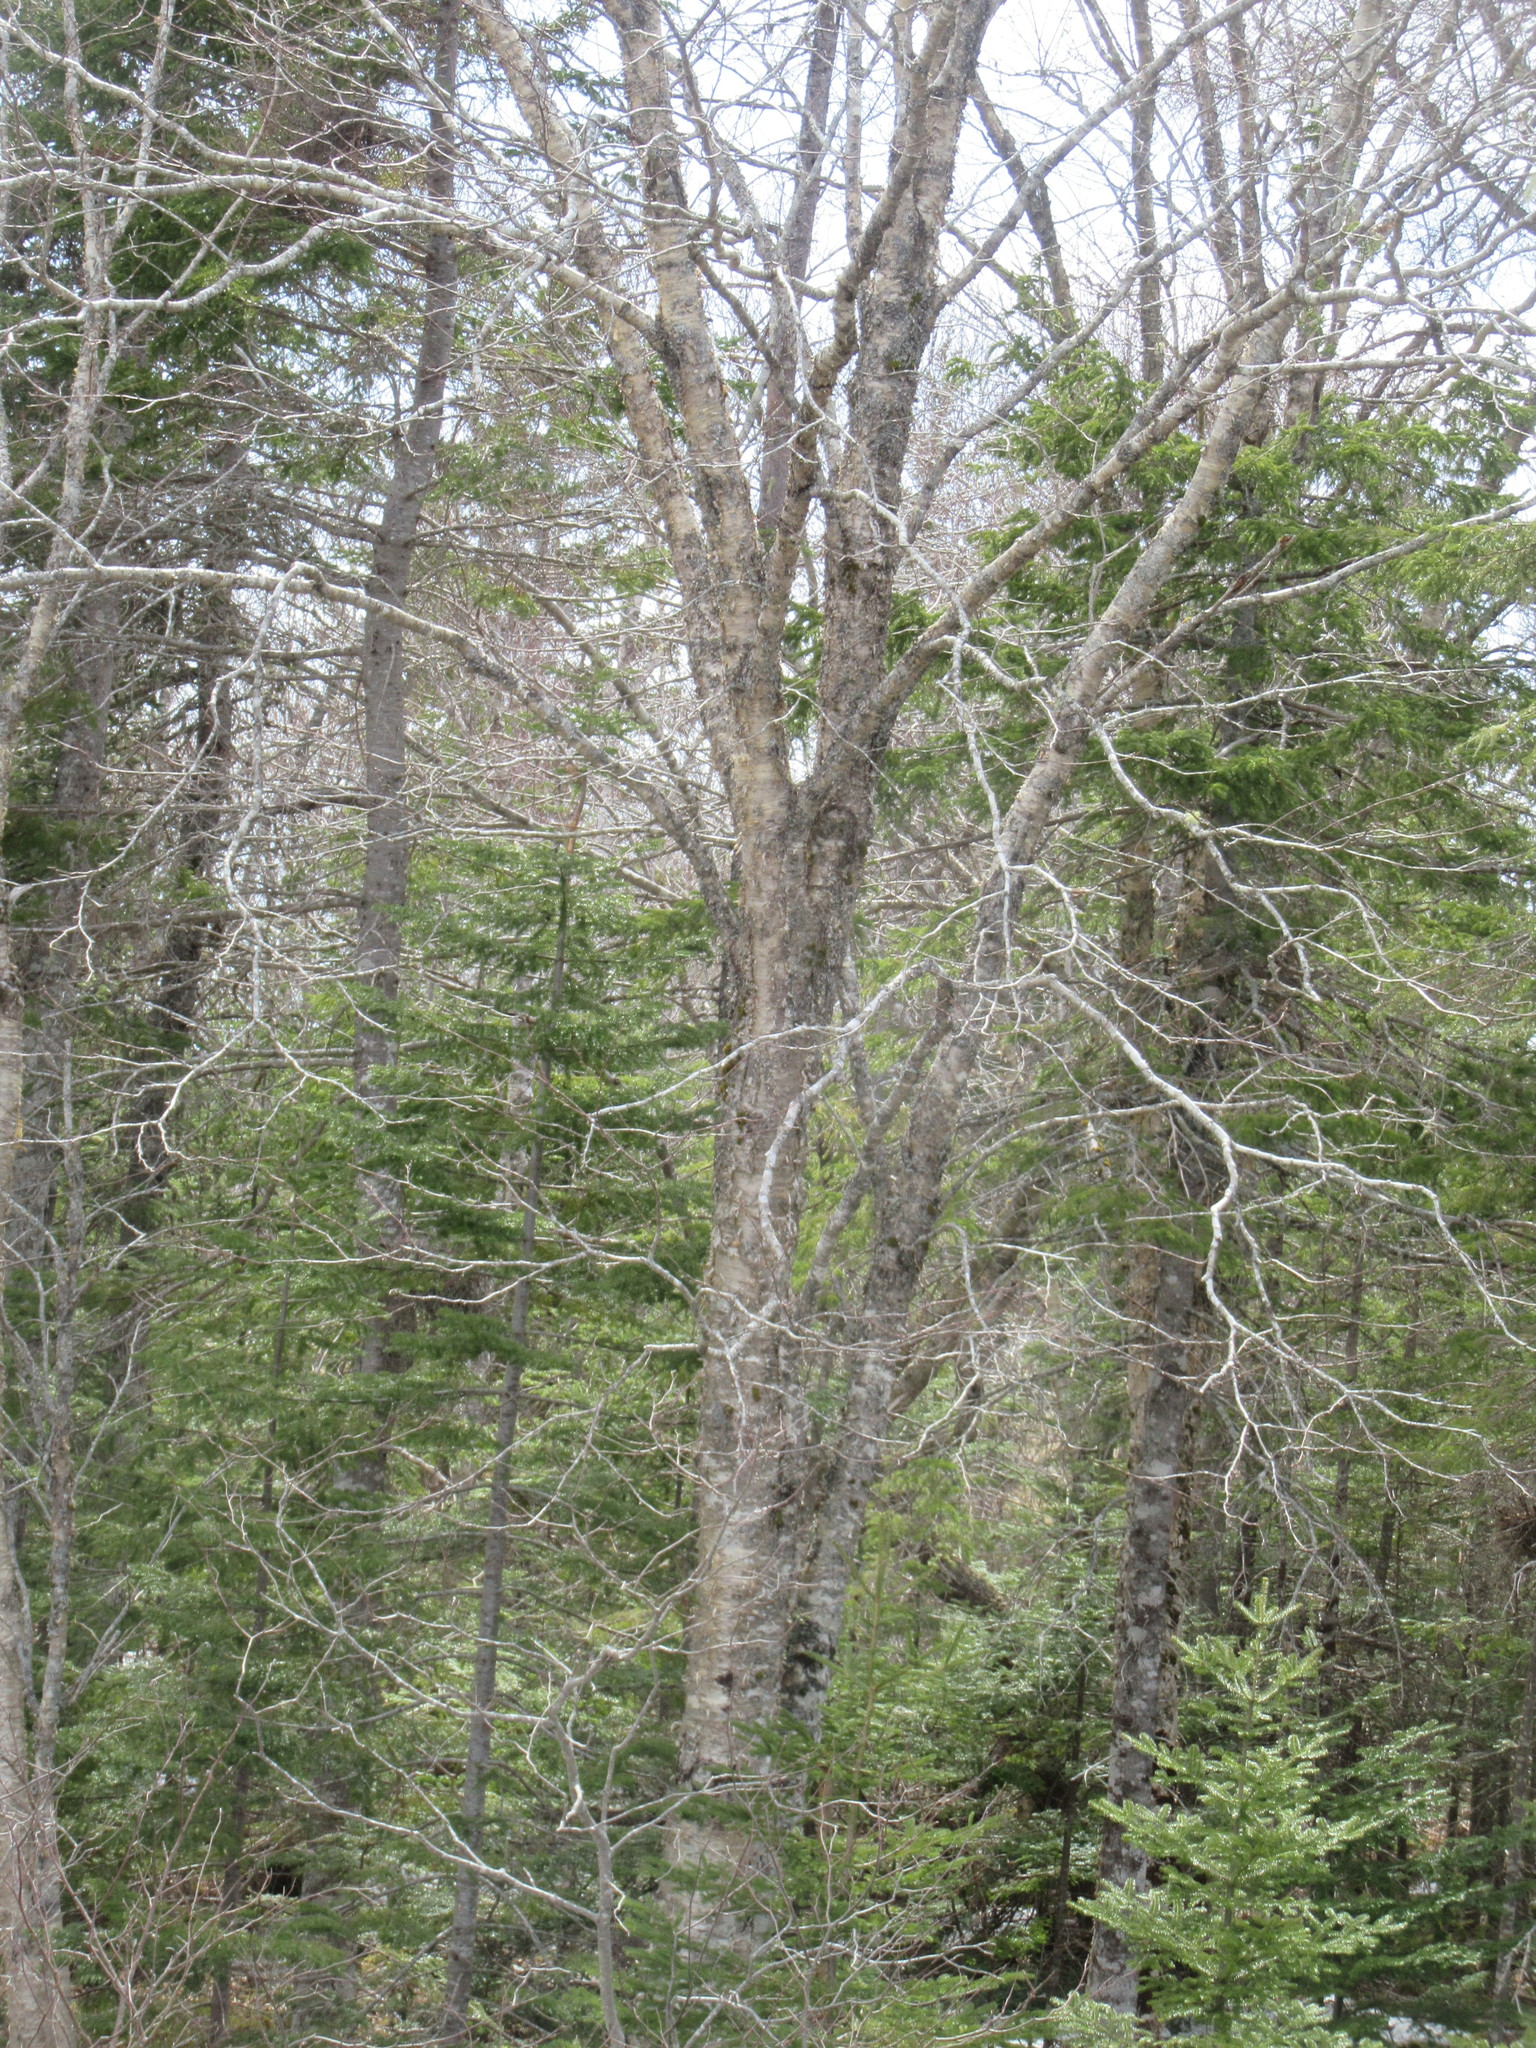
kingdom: Plantae
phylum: Tracheophyta
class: Magnoliopsida
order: Fagales
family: Betulaceae
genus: Betula
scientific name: Betula alleghaniensis
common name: Yellow birch
